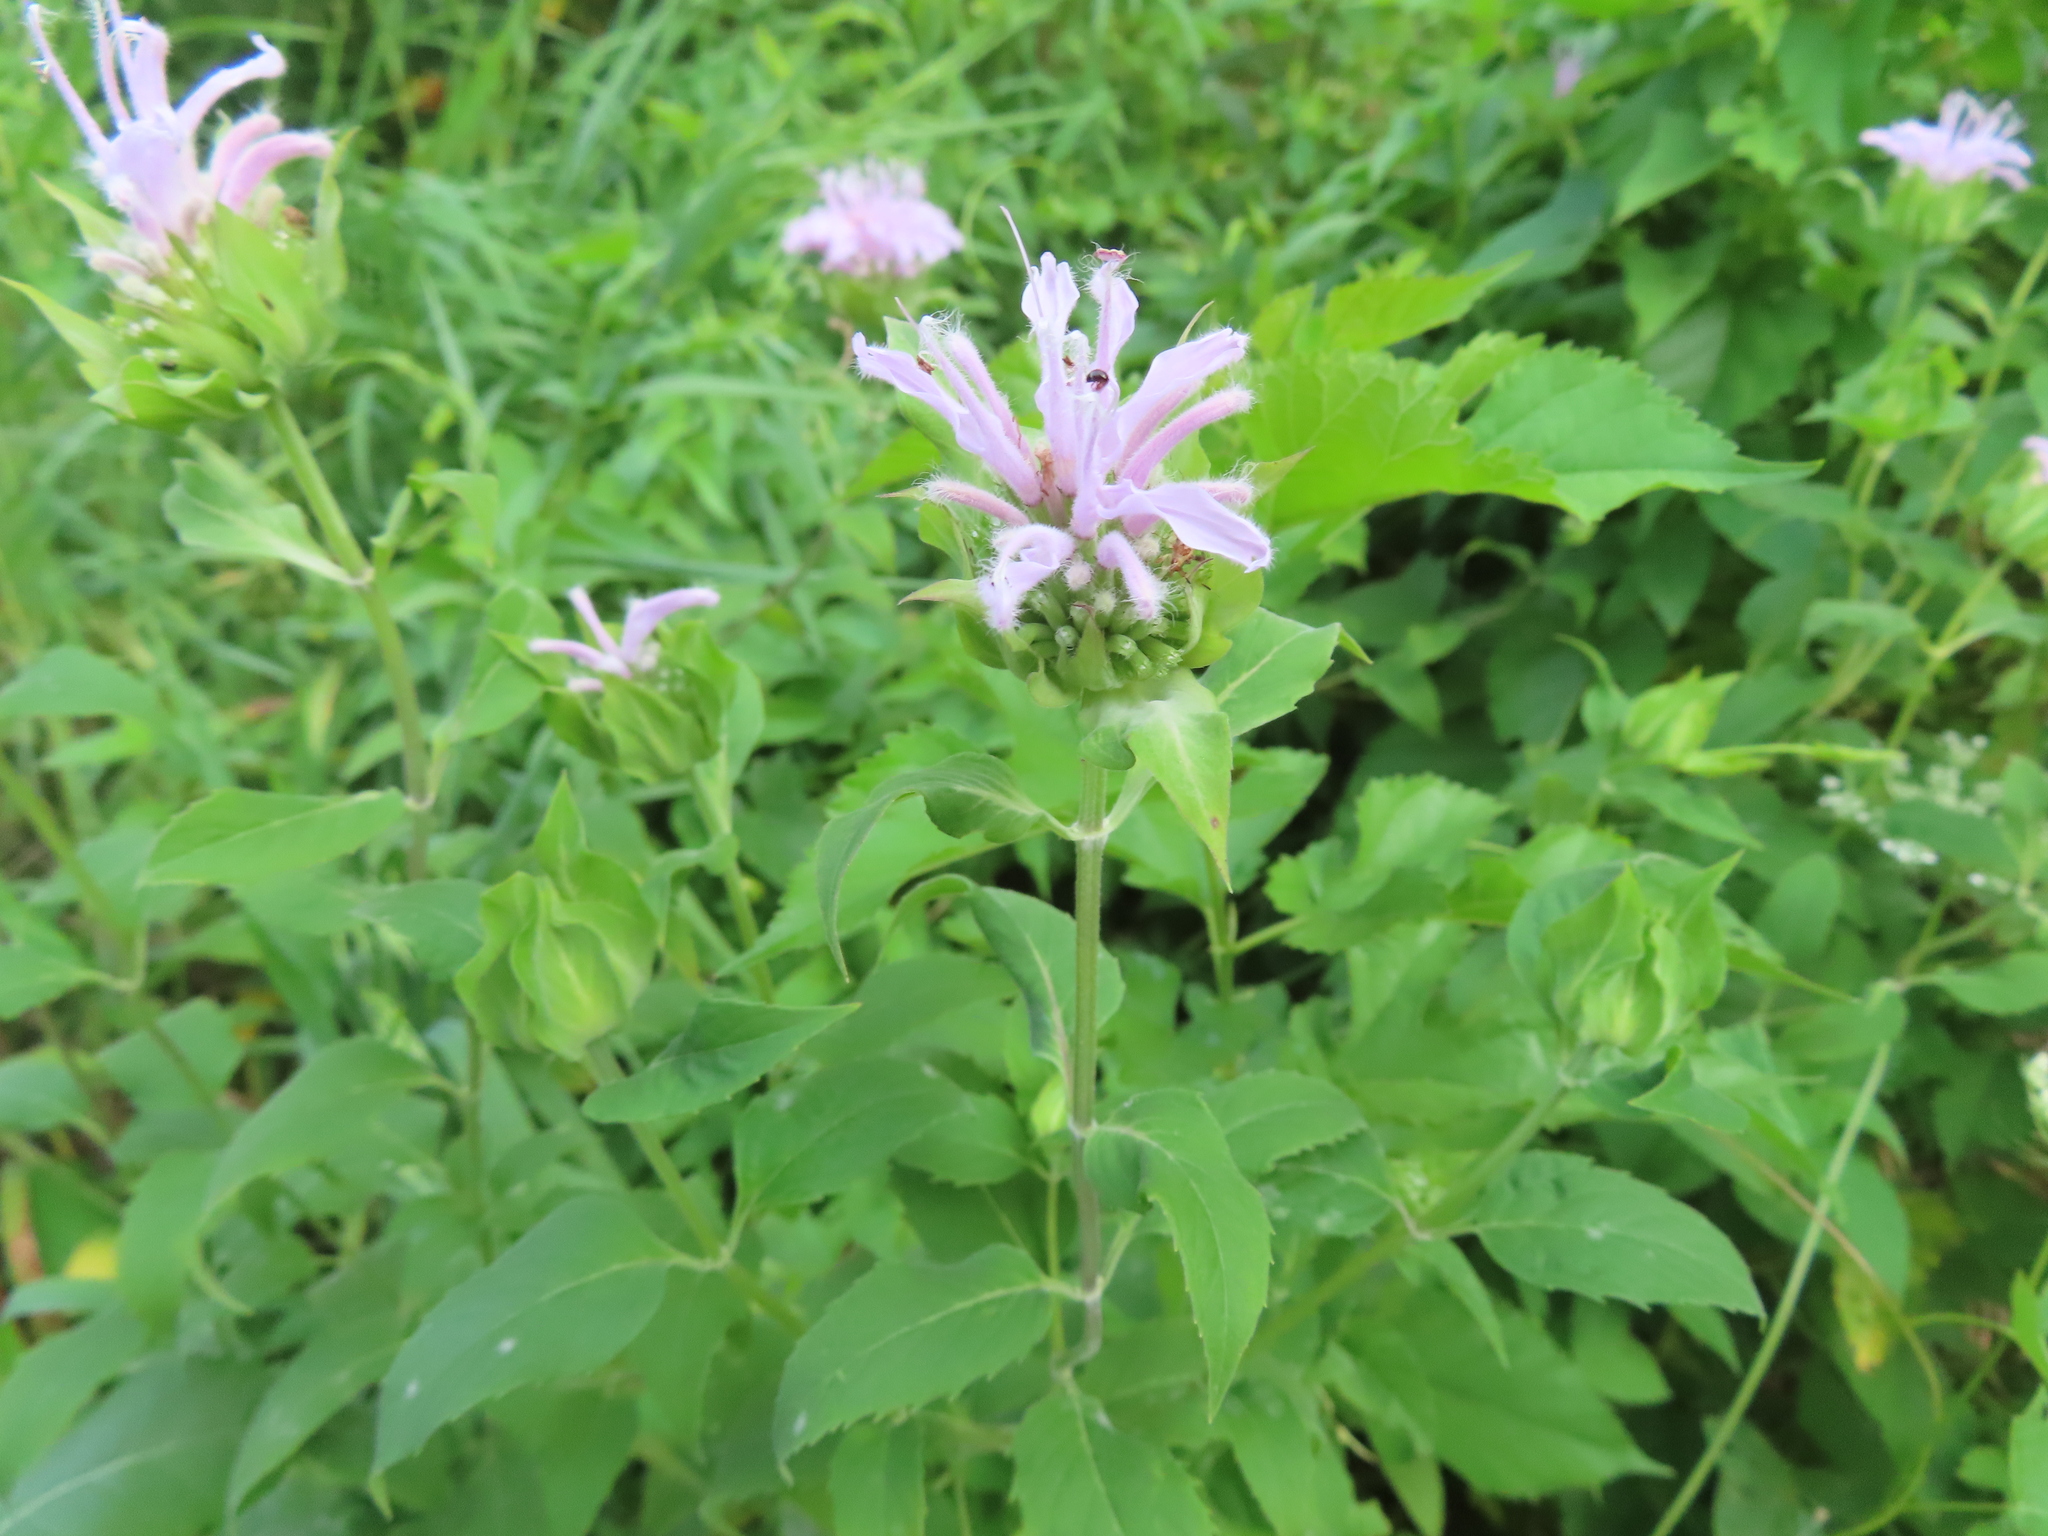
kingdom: Plantae
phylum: Tracheophyta
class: Magnoliopsida
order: Lamiales
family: Lamiaceae
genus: Monarda
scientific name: Monarda fistulosa
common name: Purple beebalm
